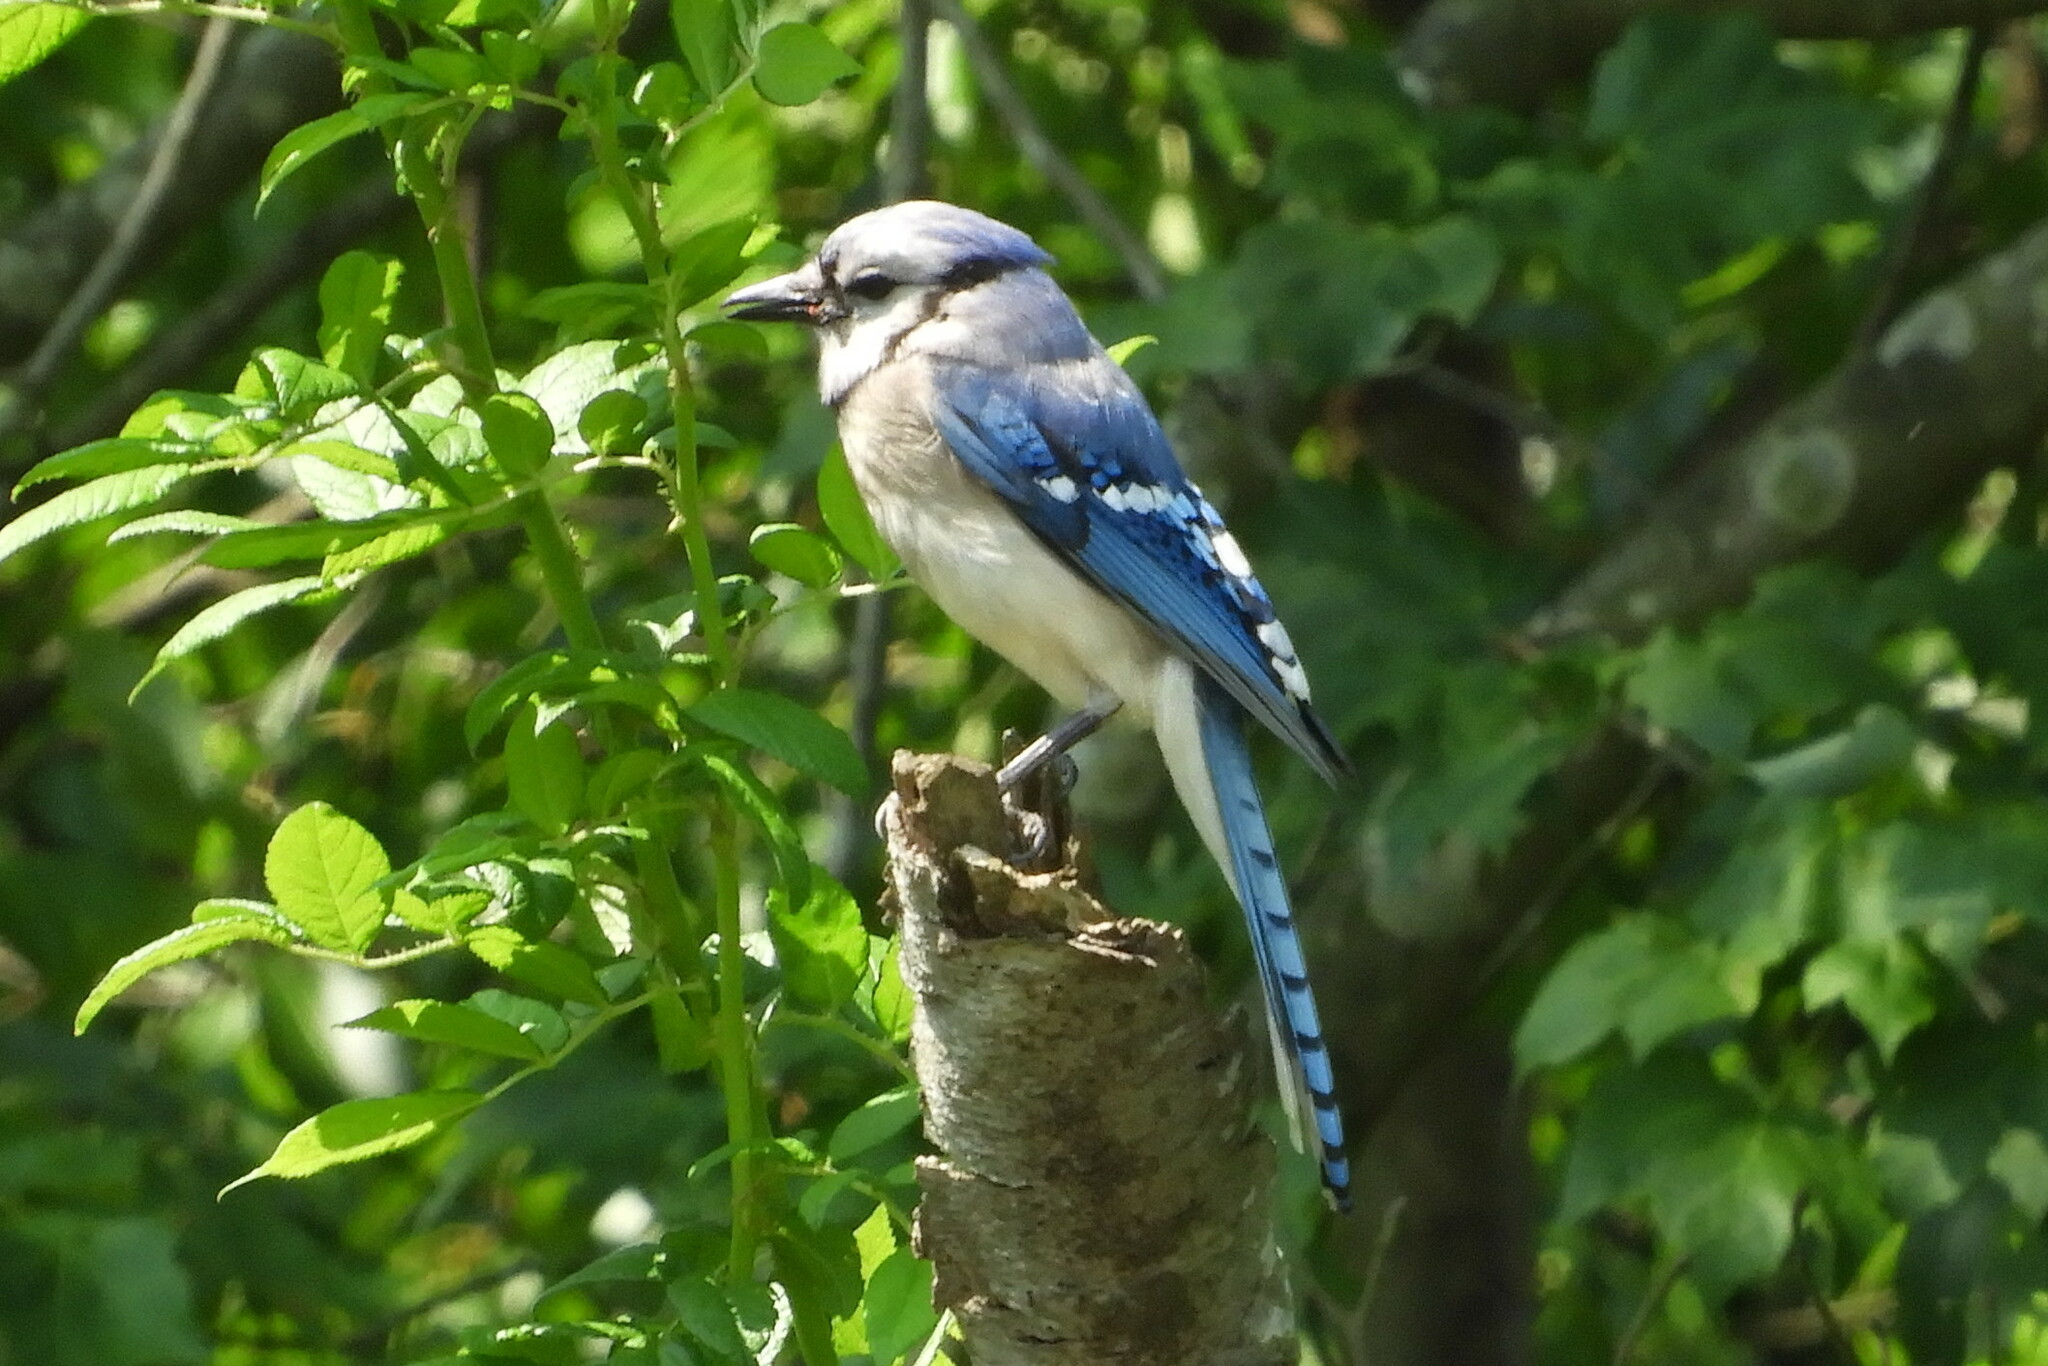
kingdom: Animalia
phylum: Chordata
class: Aves
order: Passeriformes
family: Corvidae
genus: Cyanocitta
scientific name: Cyanocitta cristata
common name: Blue jay
